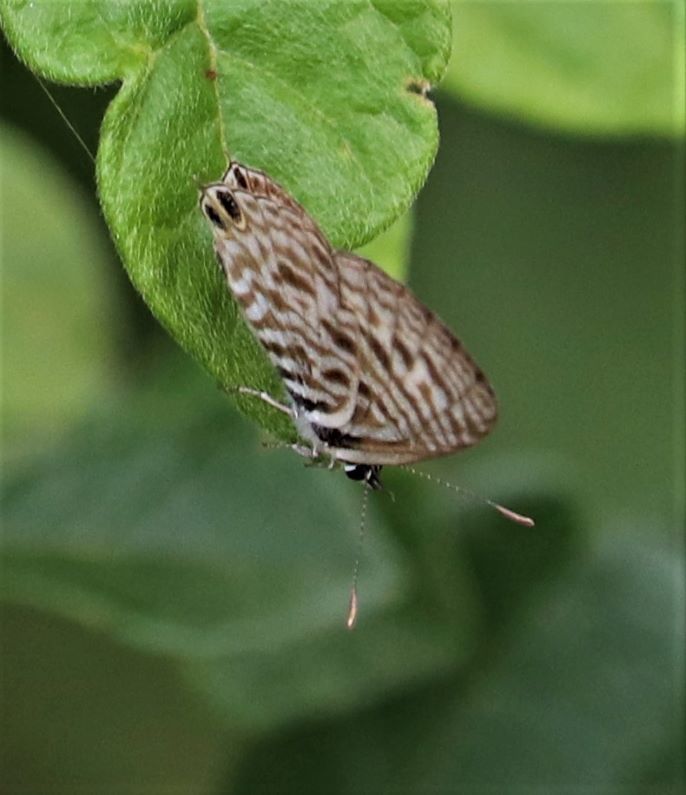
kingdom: Animalia
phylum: Arthropoda
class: Insecta
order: Lepidoptera
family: Lycaenidae
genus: Leptotes
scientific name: Leptotes
